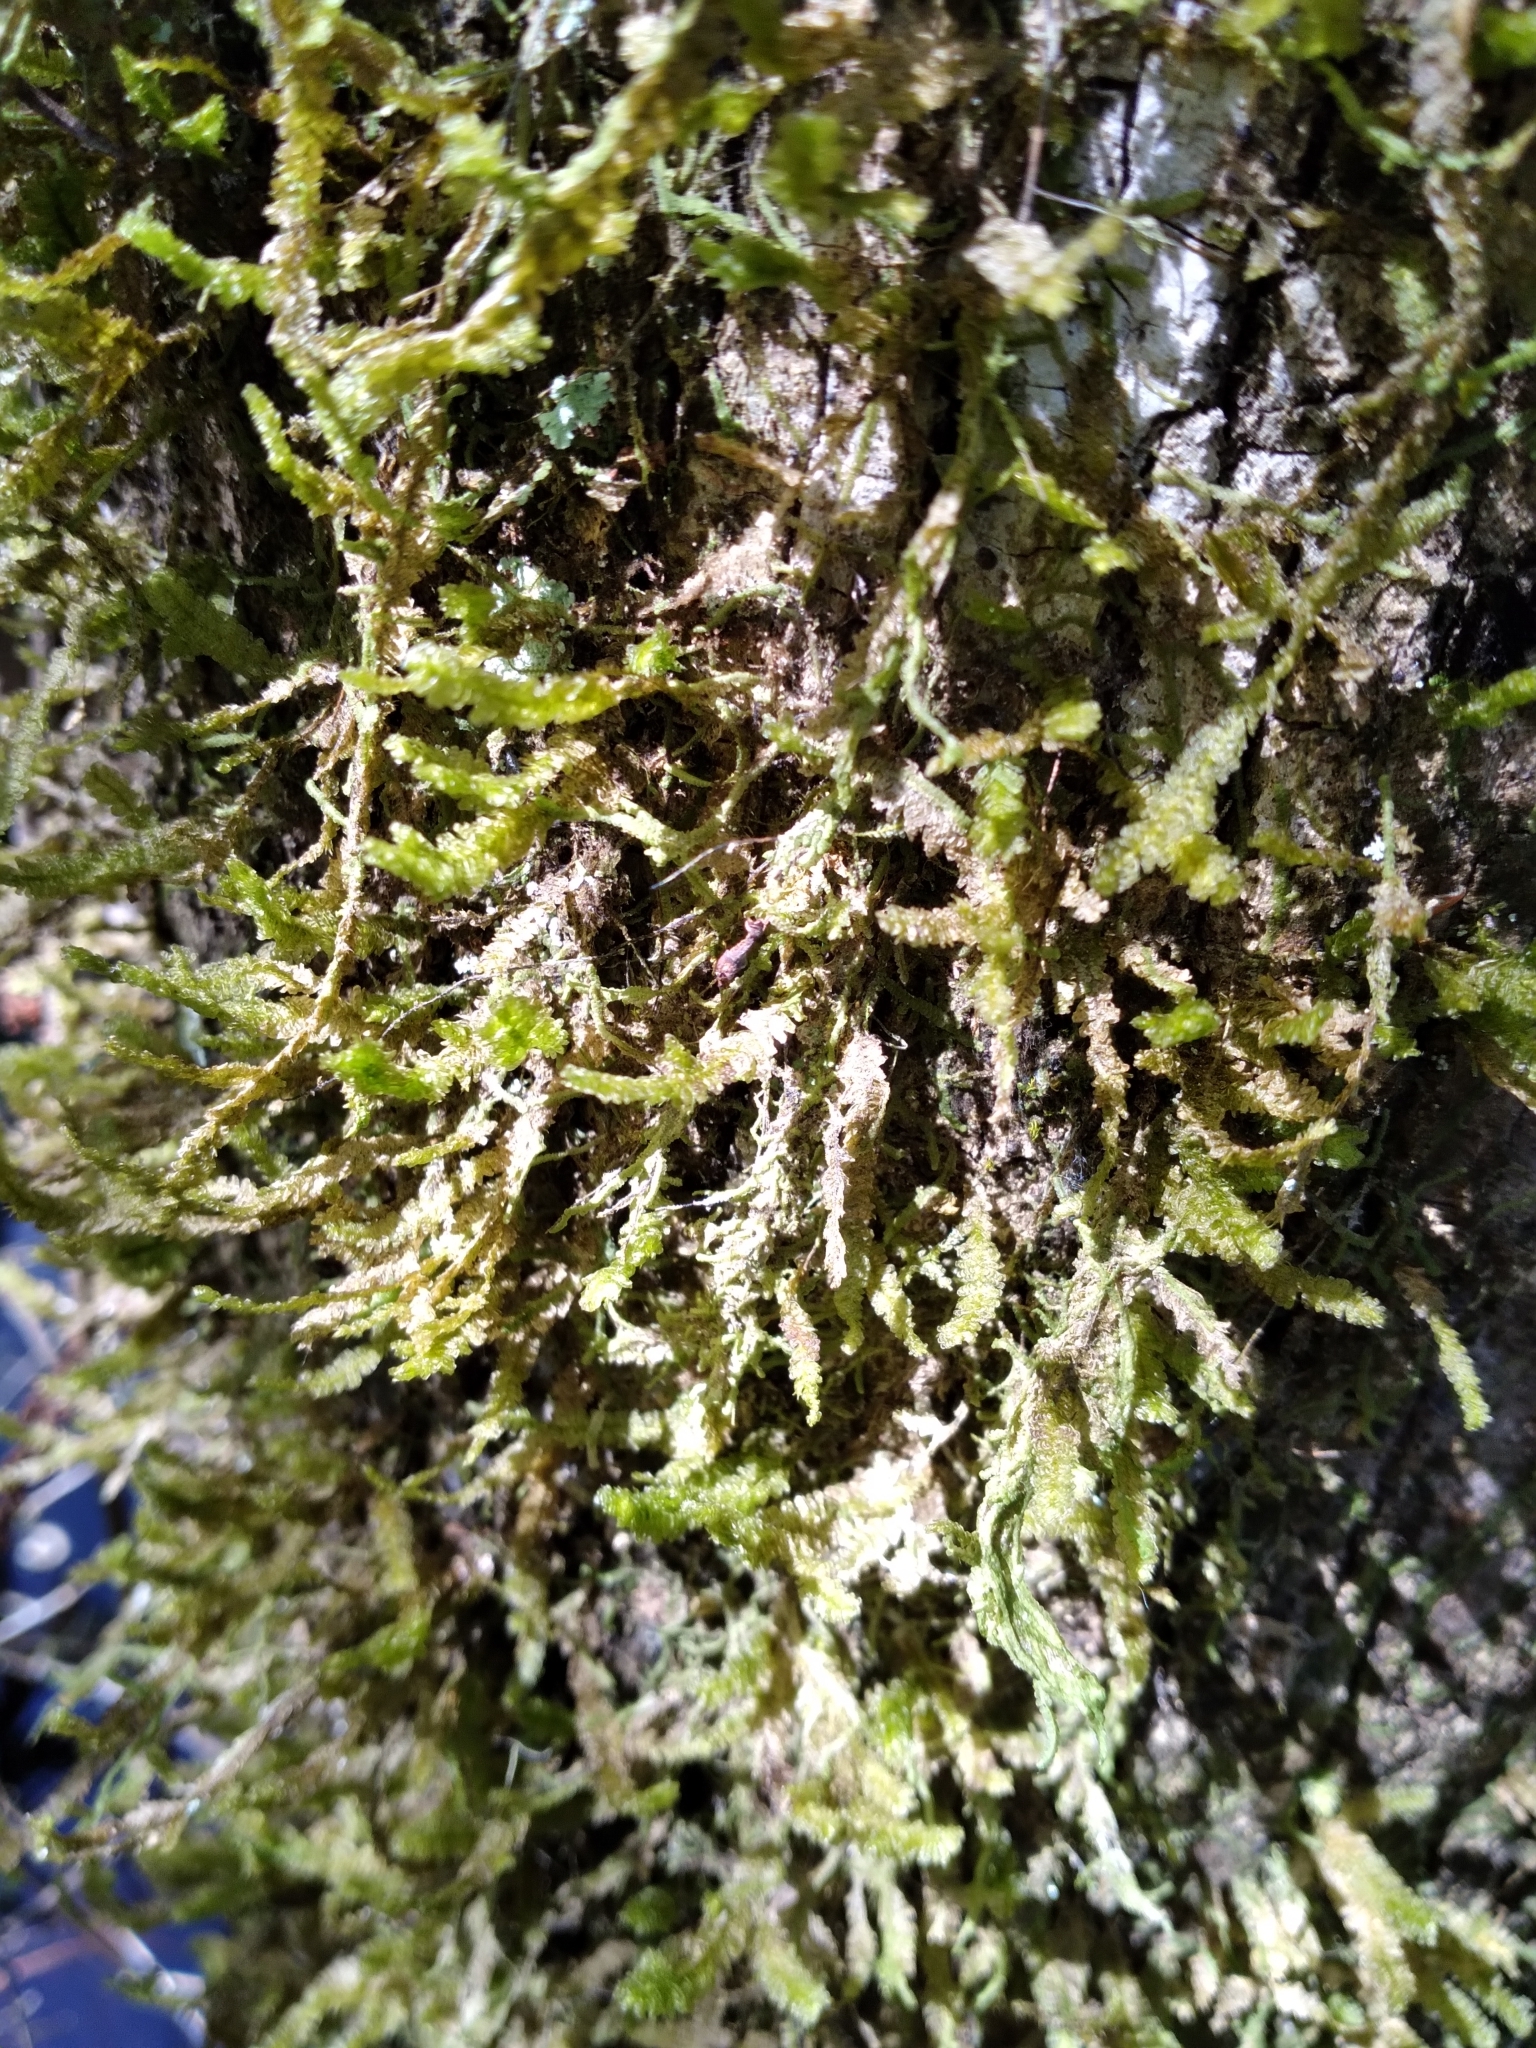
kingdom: Plantae
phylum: Bryophyta
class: Bryopsida
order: Hypnales
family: Neckeraceae
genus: Neckeropsis
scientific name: Neckeropsis undulata
